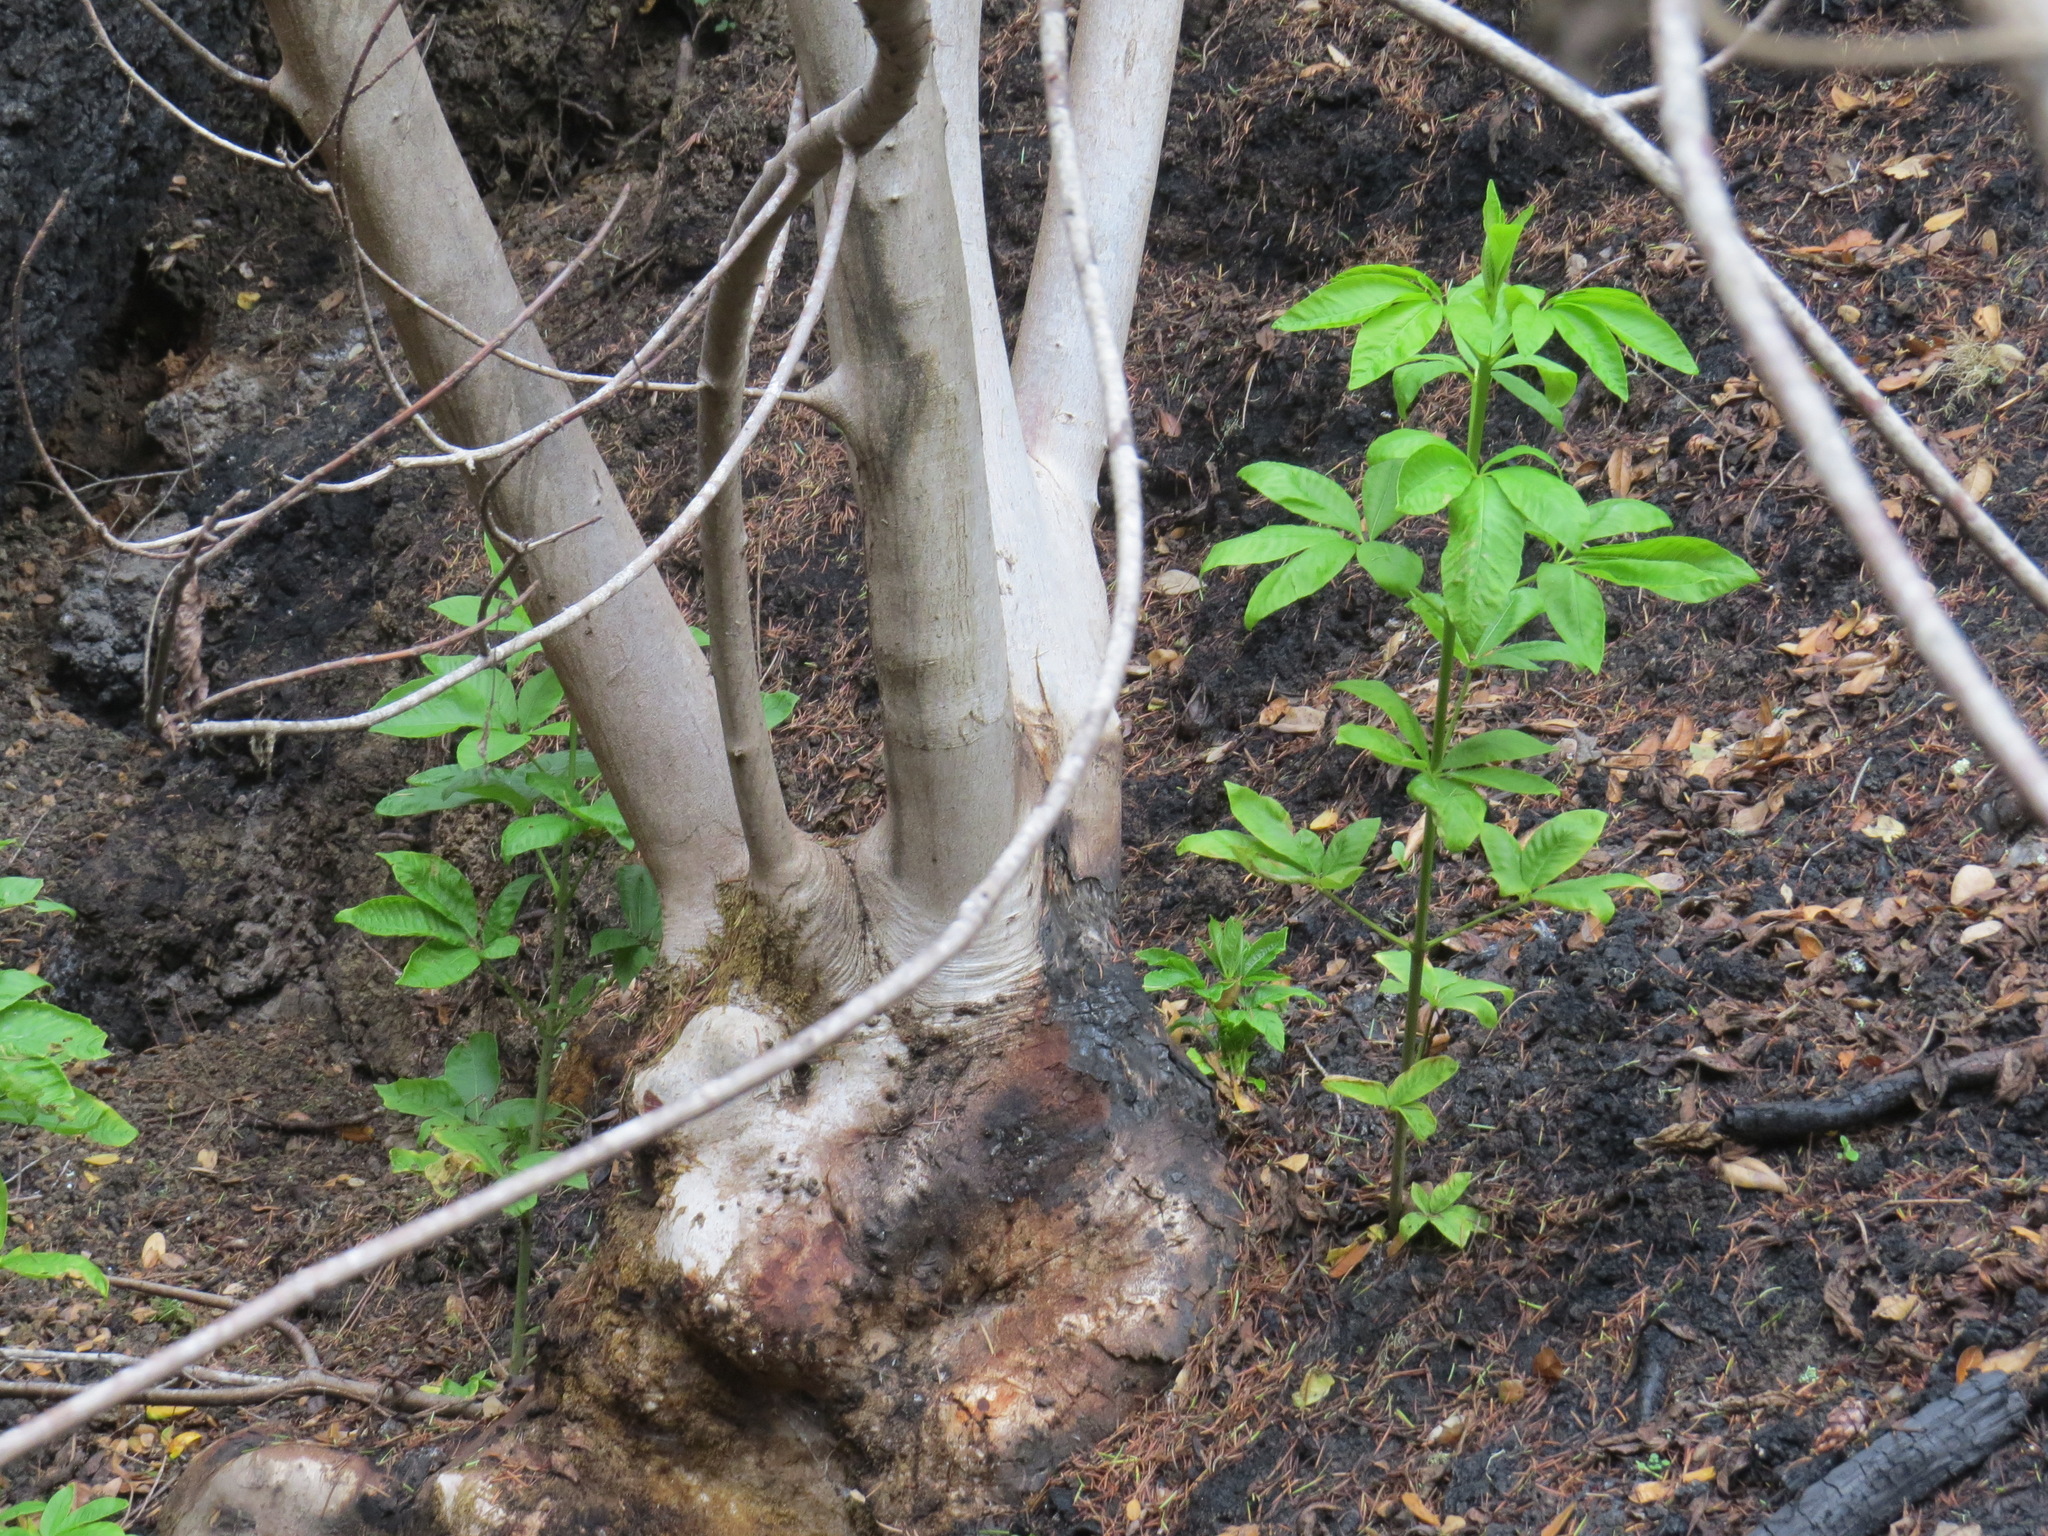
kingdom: Plantae
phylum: Tracheophyta
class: Magnoliopsida
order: Sapindales
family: Sapindaceae
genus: Aesculus
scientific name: Aesculus californica
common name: California buckeye
